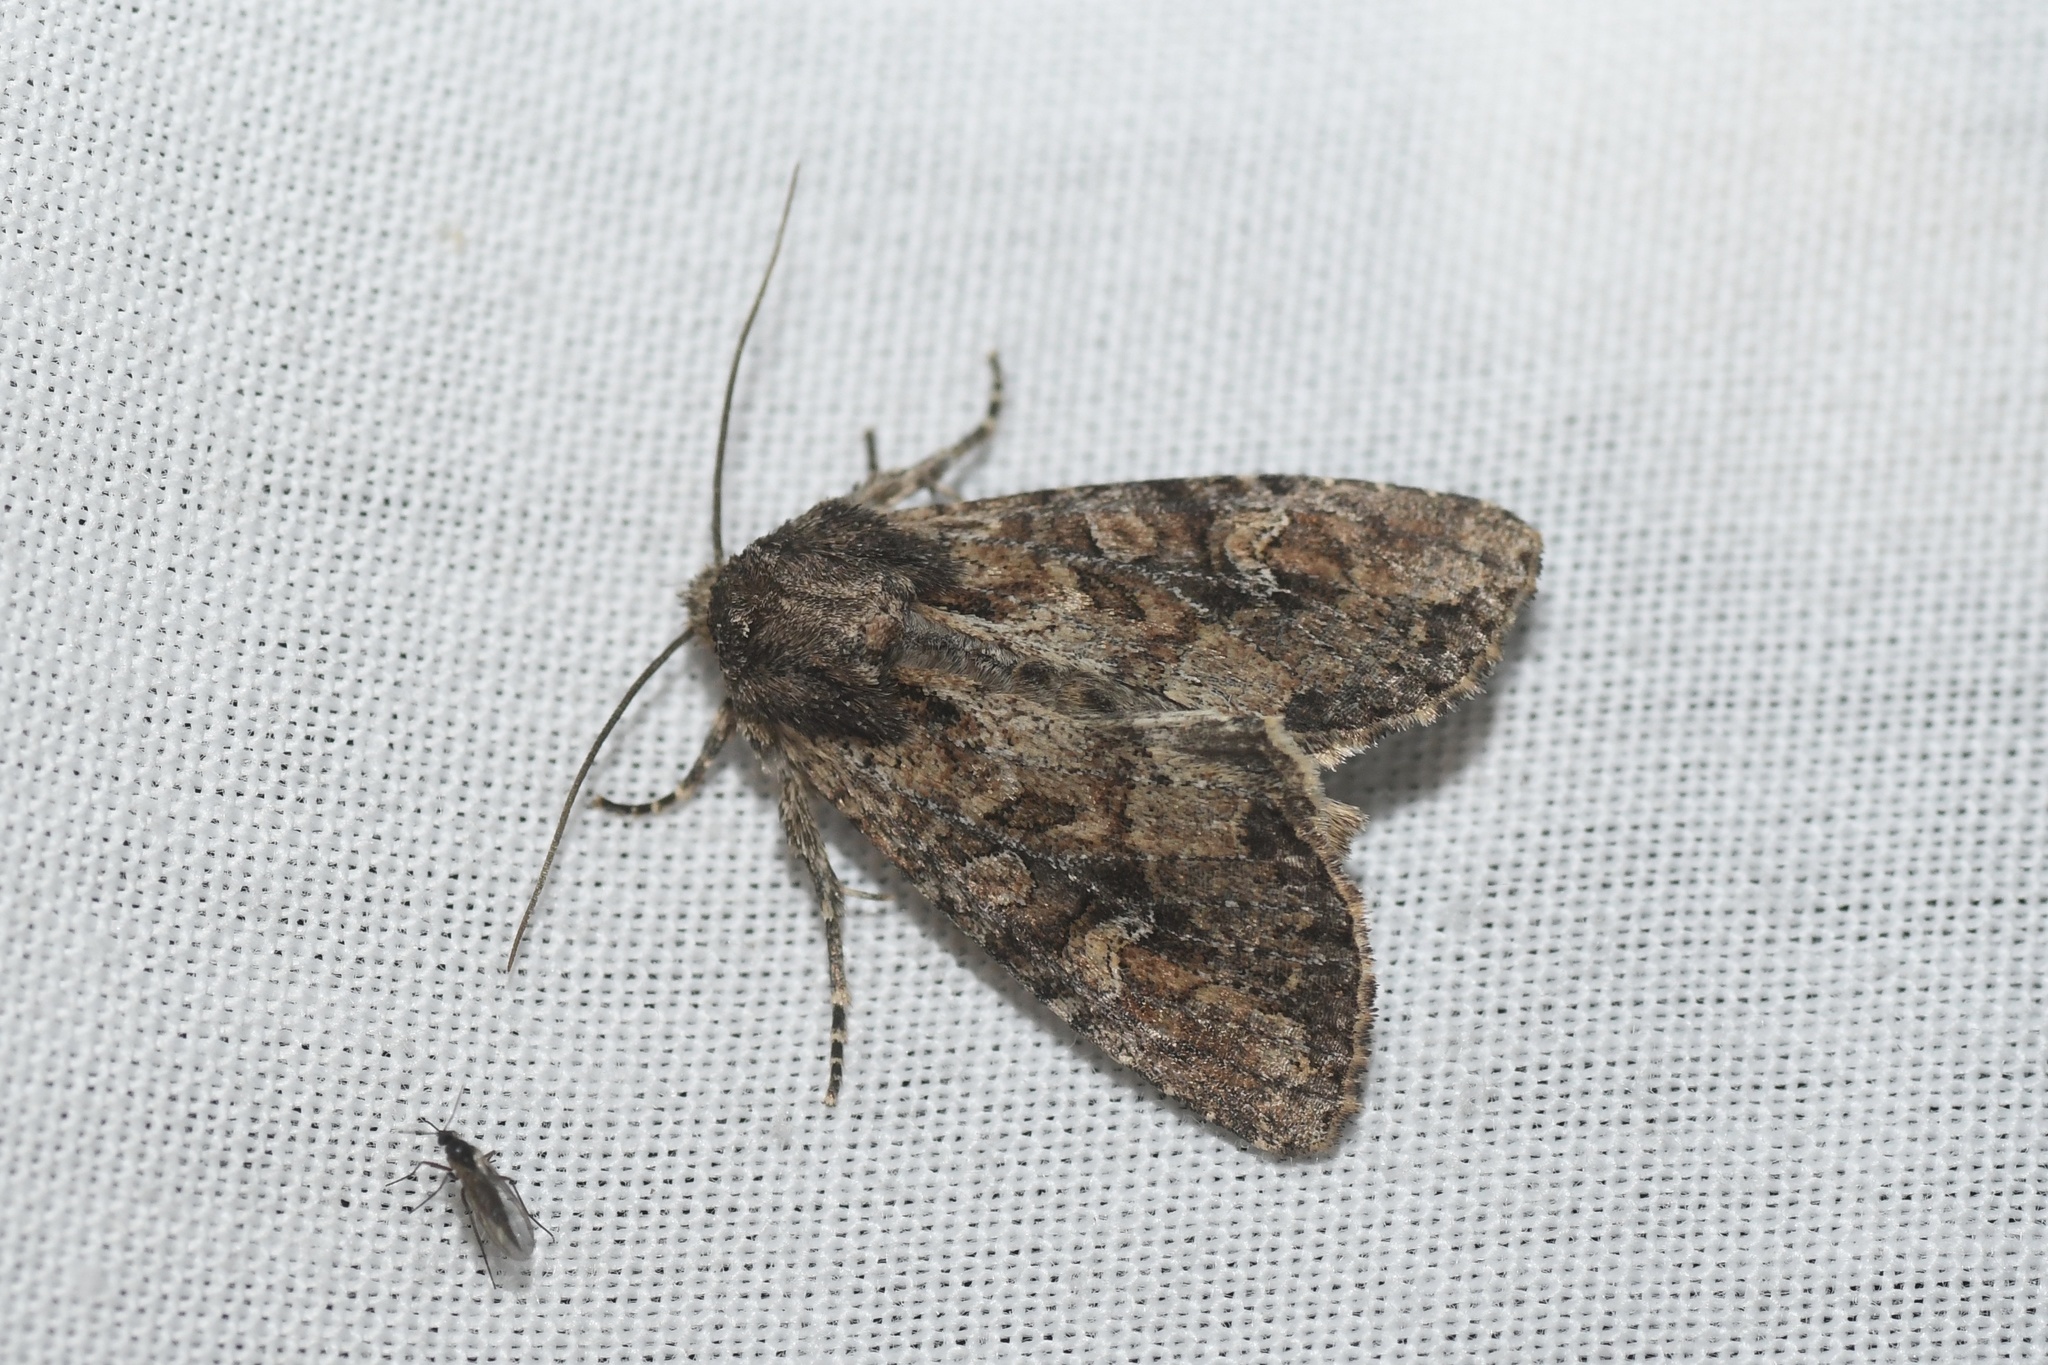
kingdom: Animalia
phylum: Arthropoda
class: Insecta
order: Lepidoptera
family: Noctuidae
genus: Apamea
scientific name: Apamea unanimis
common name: Small clouded brindle
